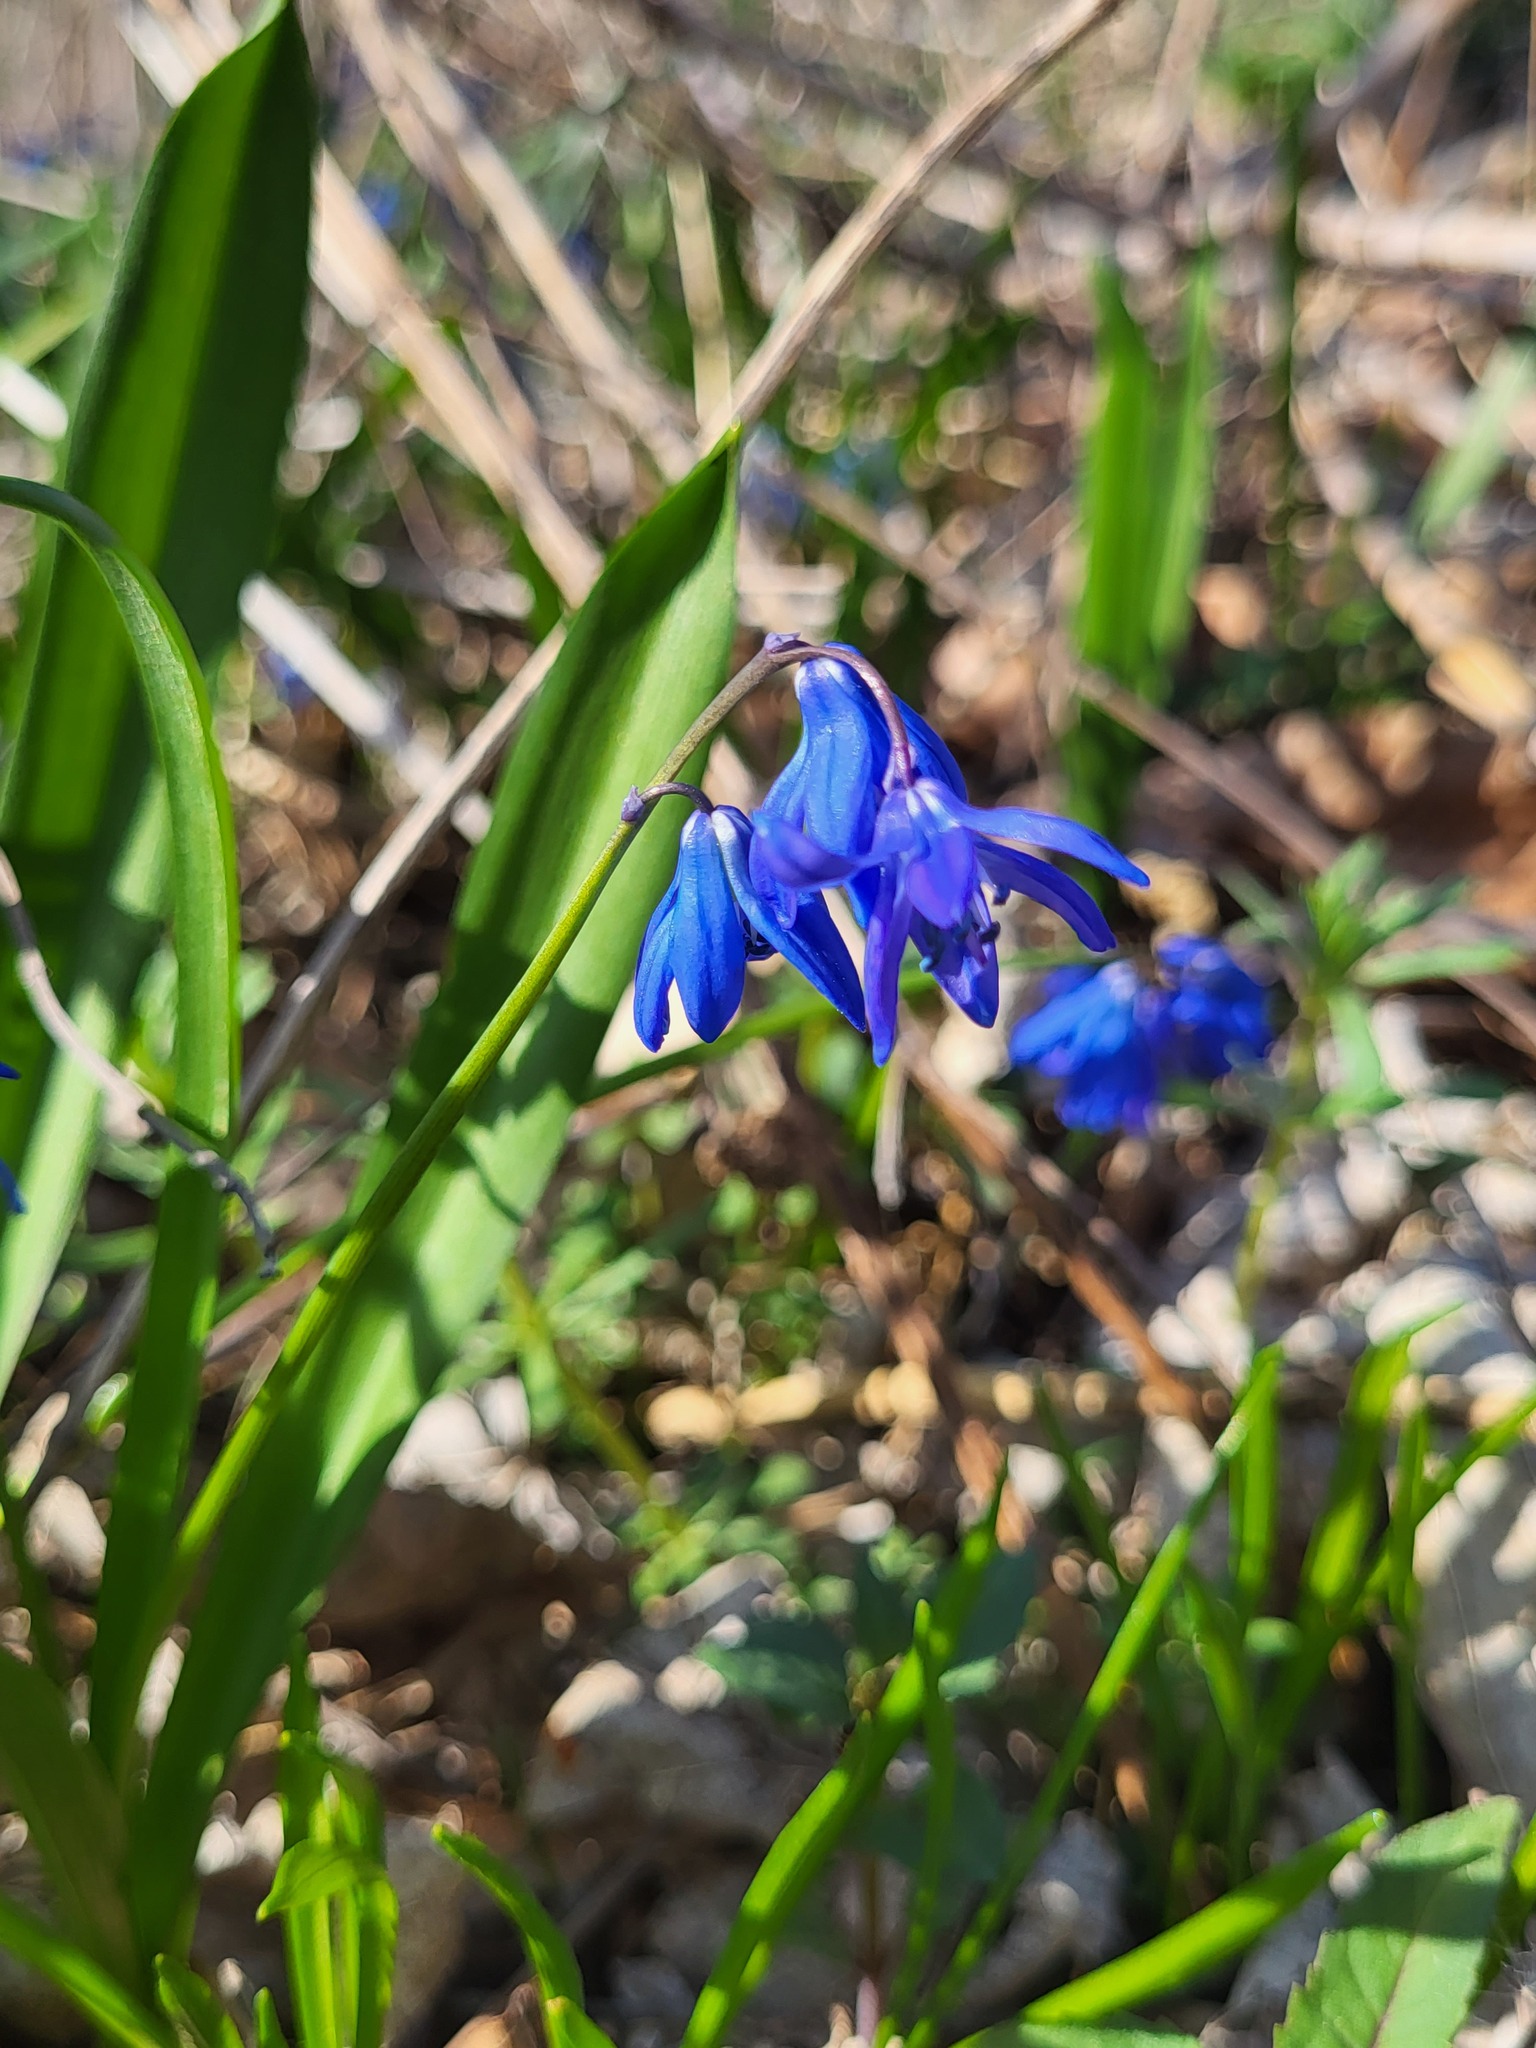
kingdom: Plantae
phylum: Tracheophyta
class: Liliopsida
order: Asparagales
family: Asparagaceae
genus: Scilla
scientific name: Scilla siberica
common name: Siberian squill
